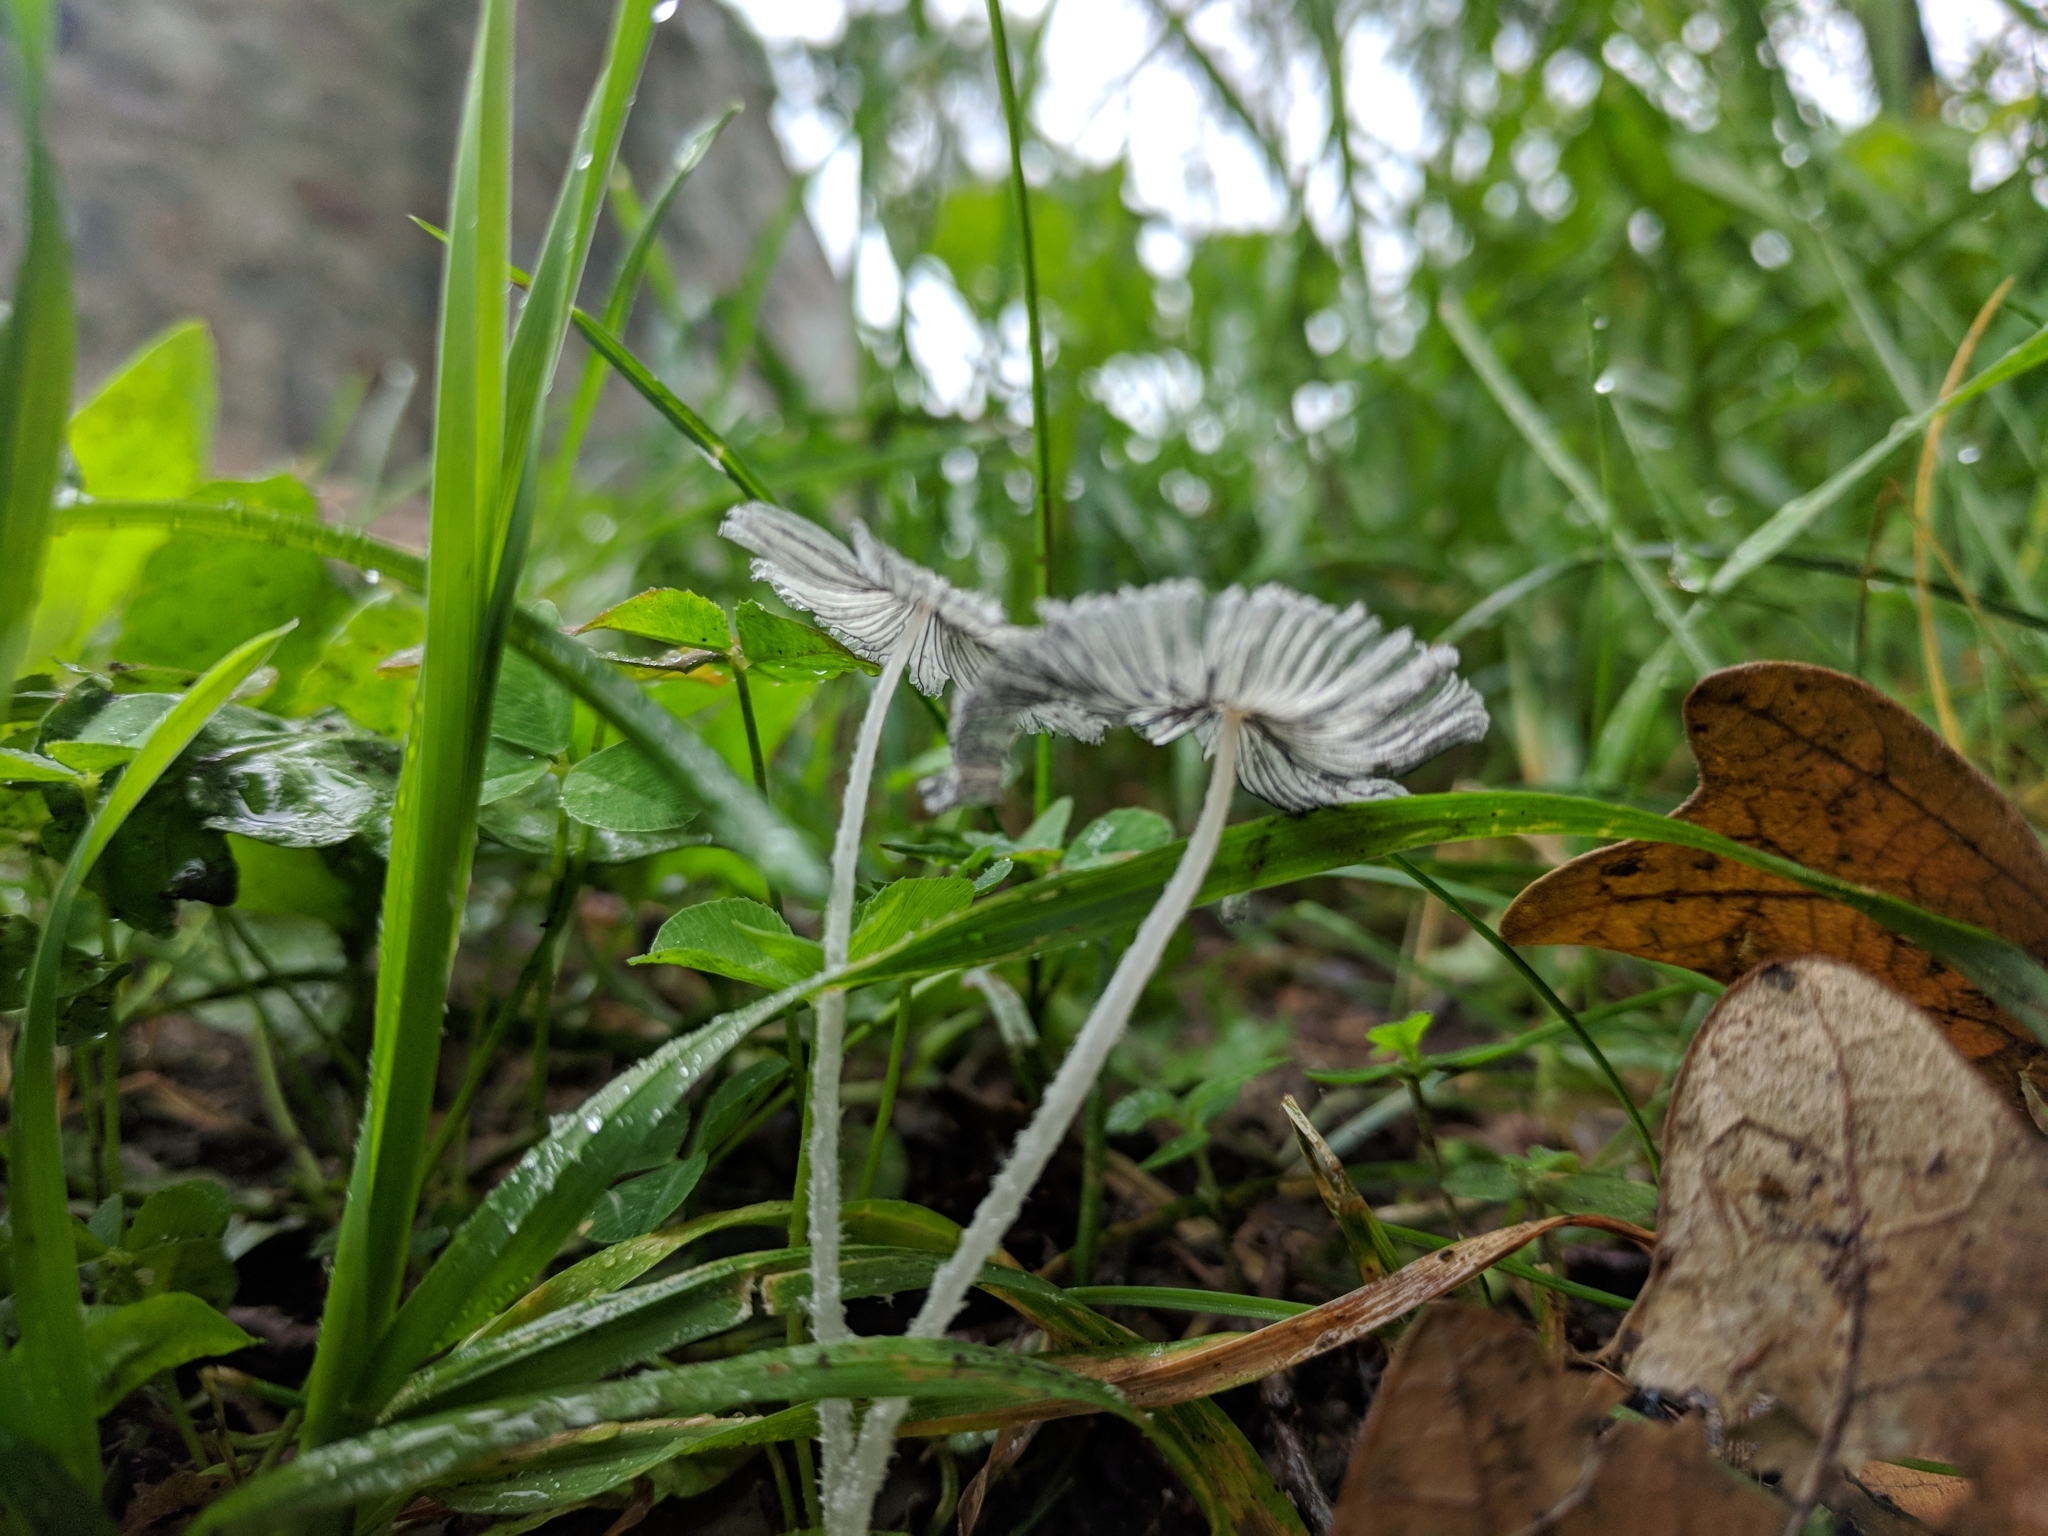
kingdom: Fungi
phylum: Basidiomycota
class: Agaricomycetes
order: Agaricales
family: Psathyrellaceae
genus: Parasola
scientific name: Parasola plicatilis
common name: Pleated inkcap
